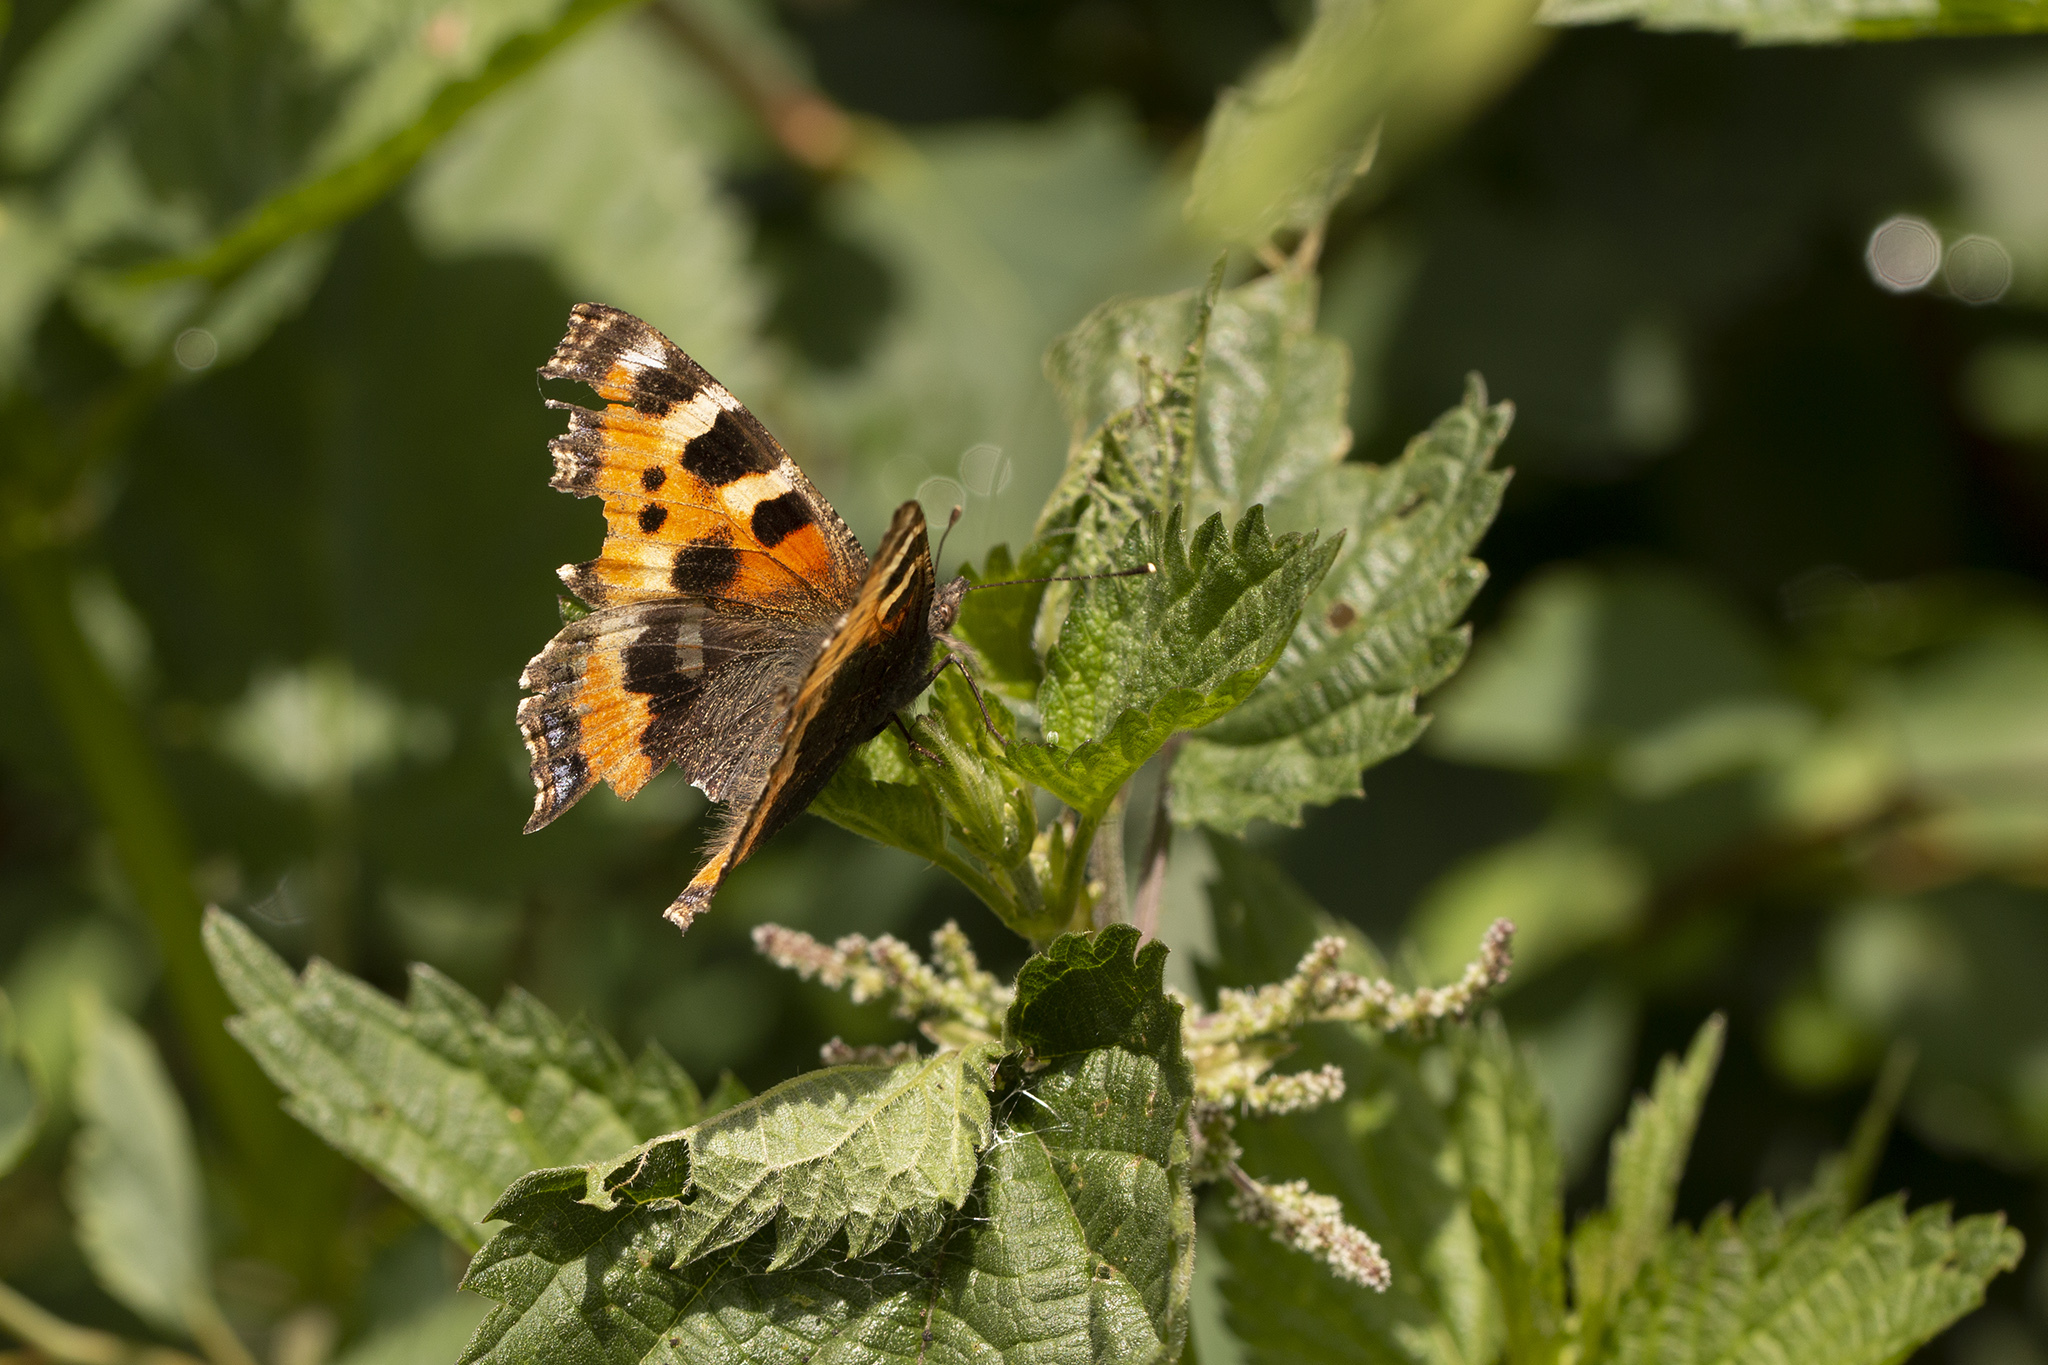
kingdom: Animalia
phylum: Arthropoda
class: Insecta
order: Lepidoptera
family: Nymphalidae
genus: Aglais
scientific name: Aglais urticae
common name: Small tortoiseshell
